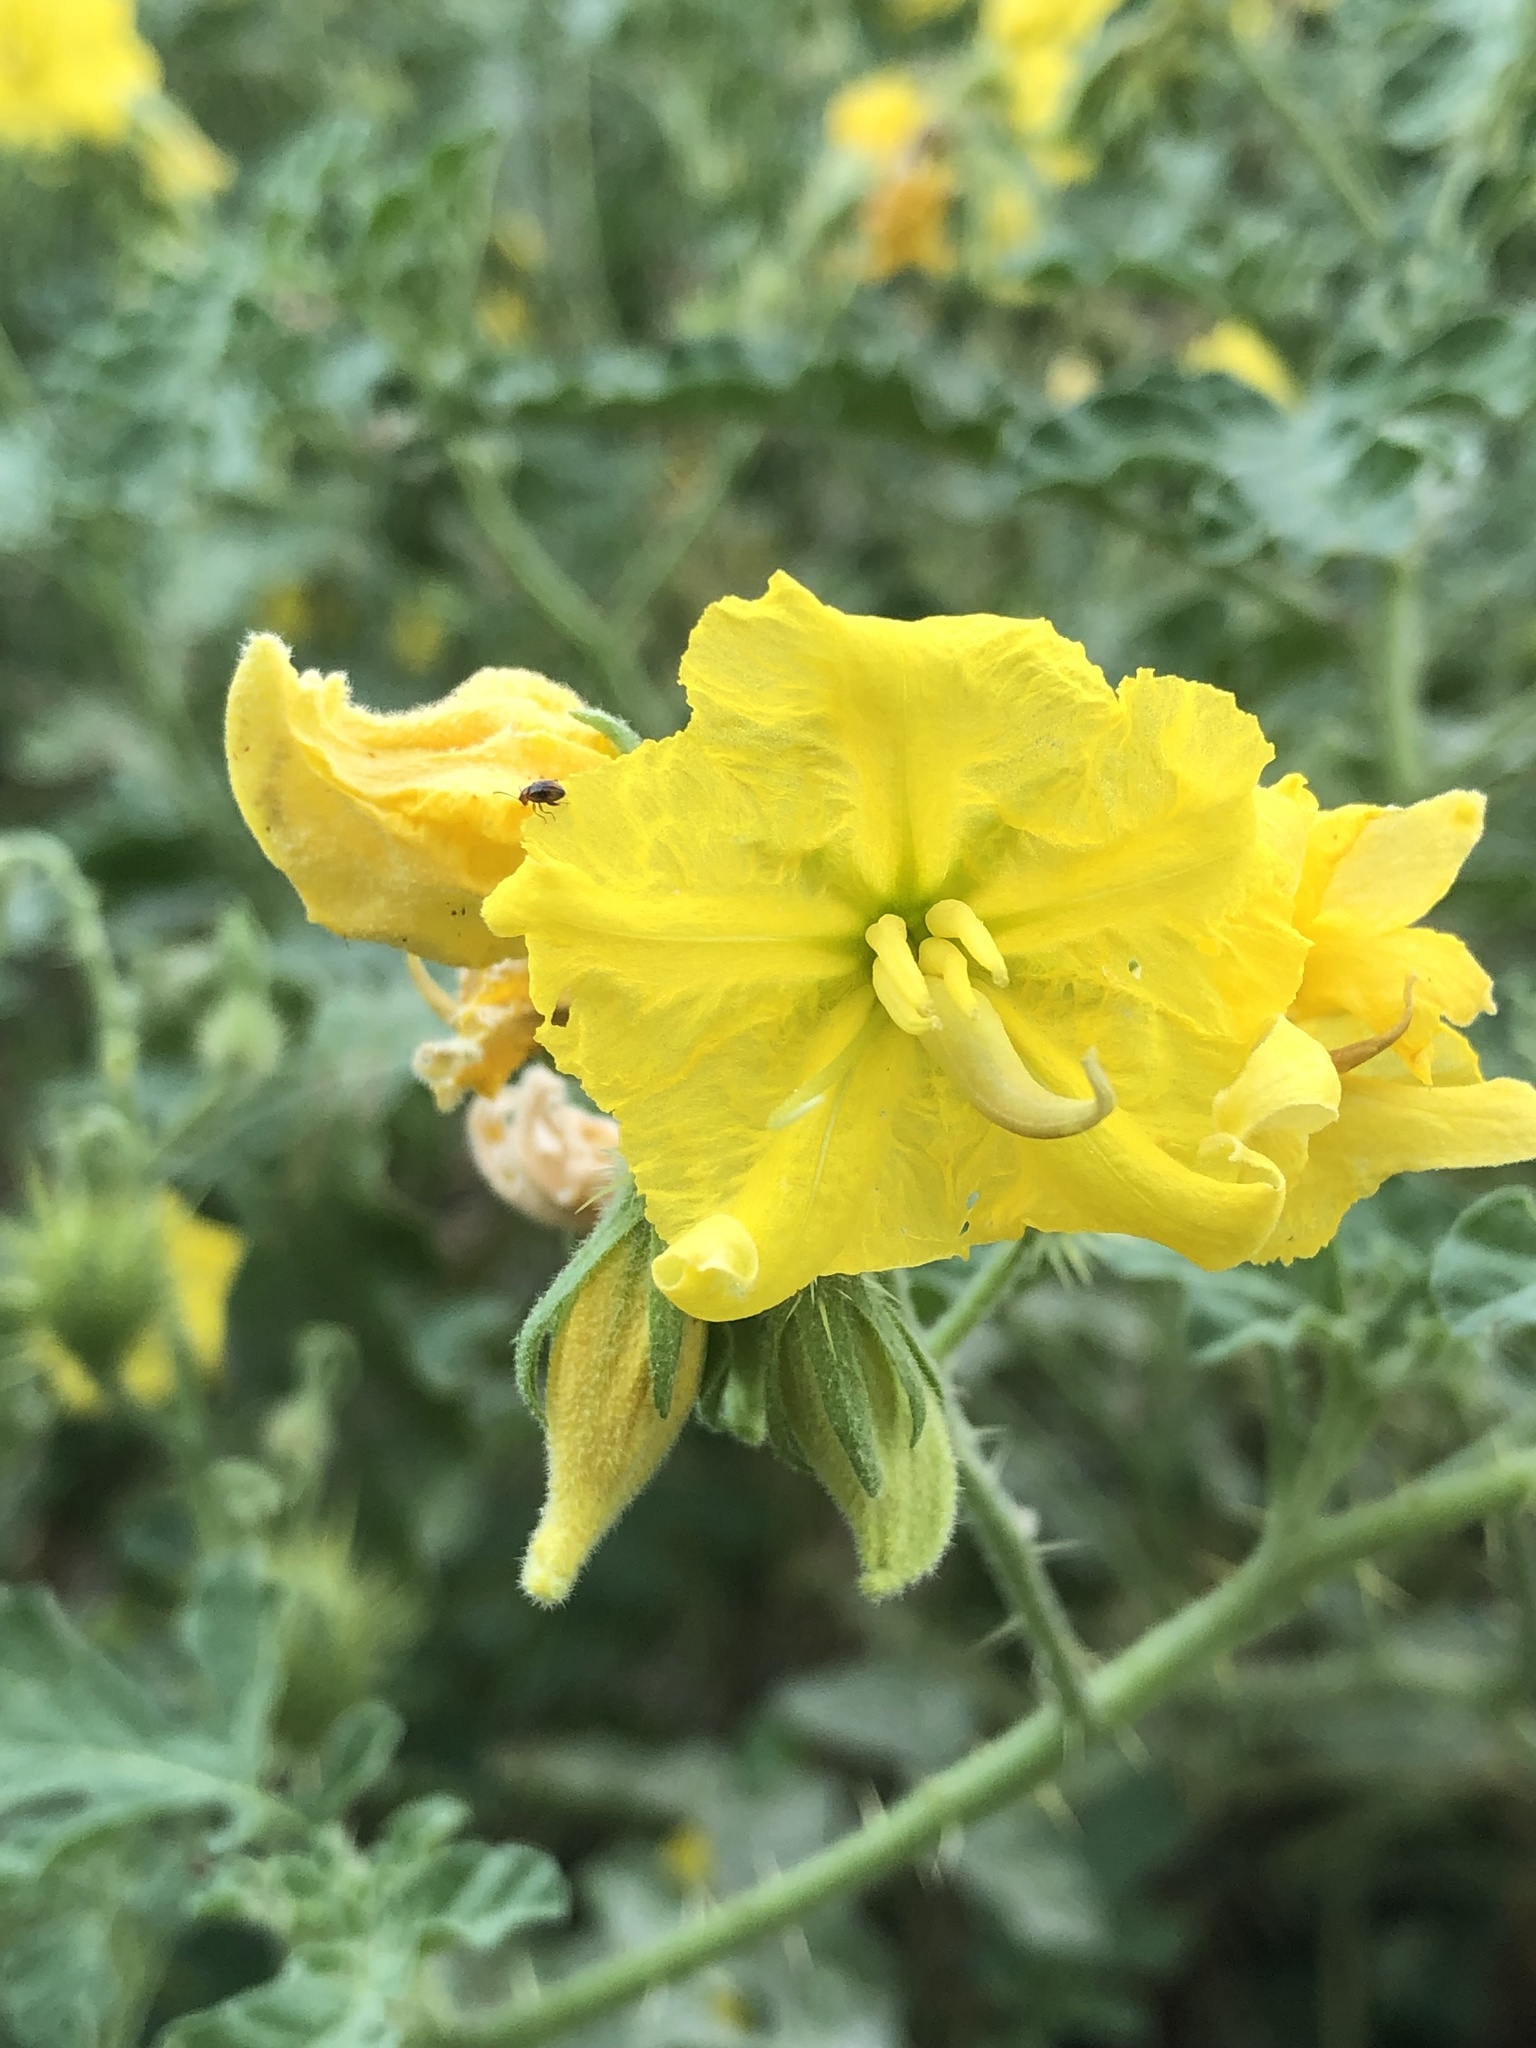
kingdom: Plantae
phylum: Tracheophyta
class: Magnoliopsida
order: Solanales
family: Solanaceae
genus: Solanum
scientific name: Solanum angustifolium
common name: Buffalobur nightshade
